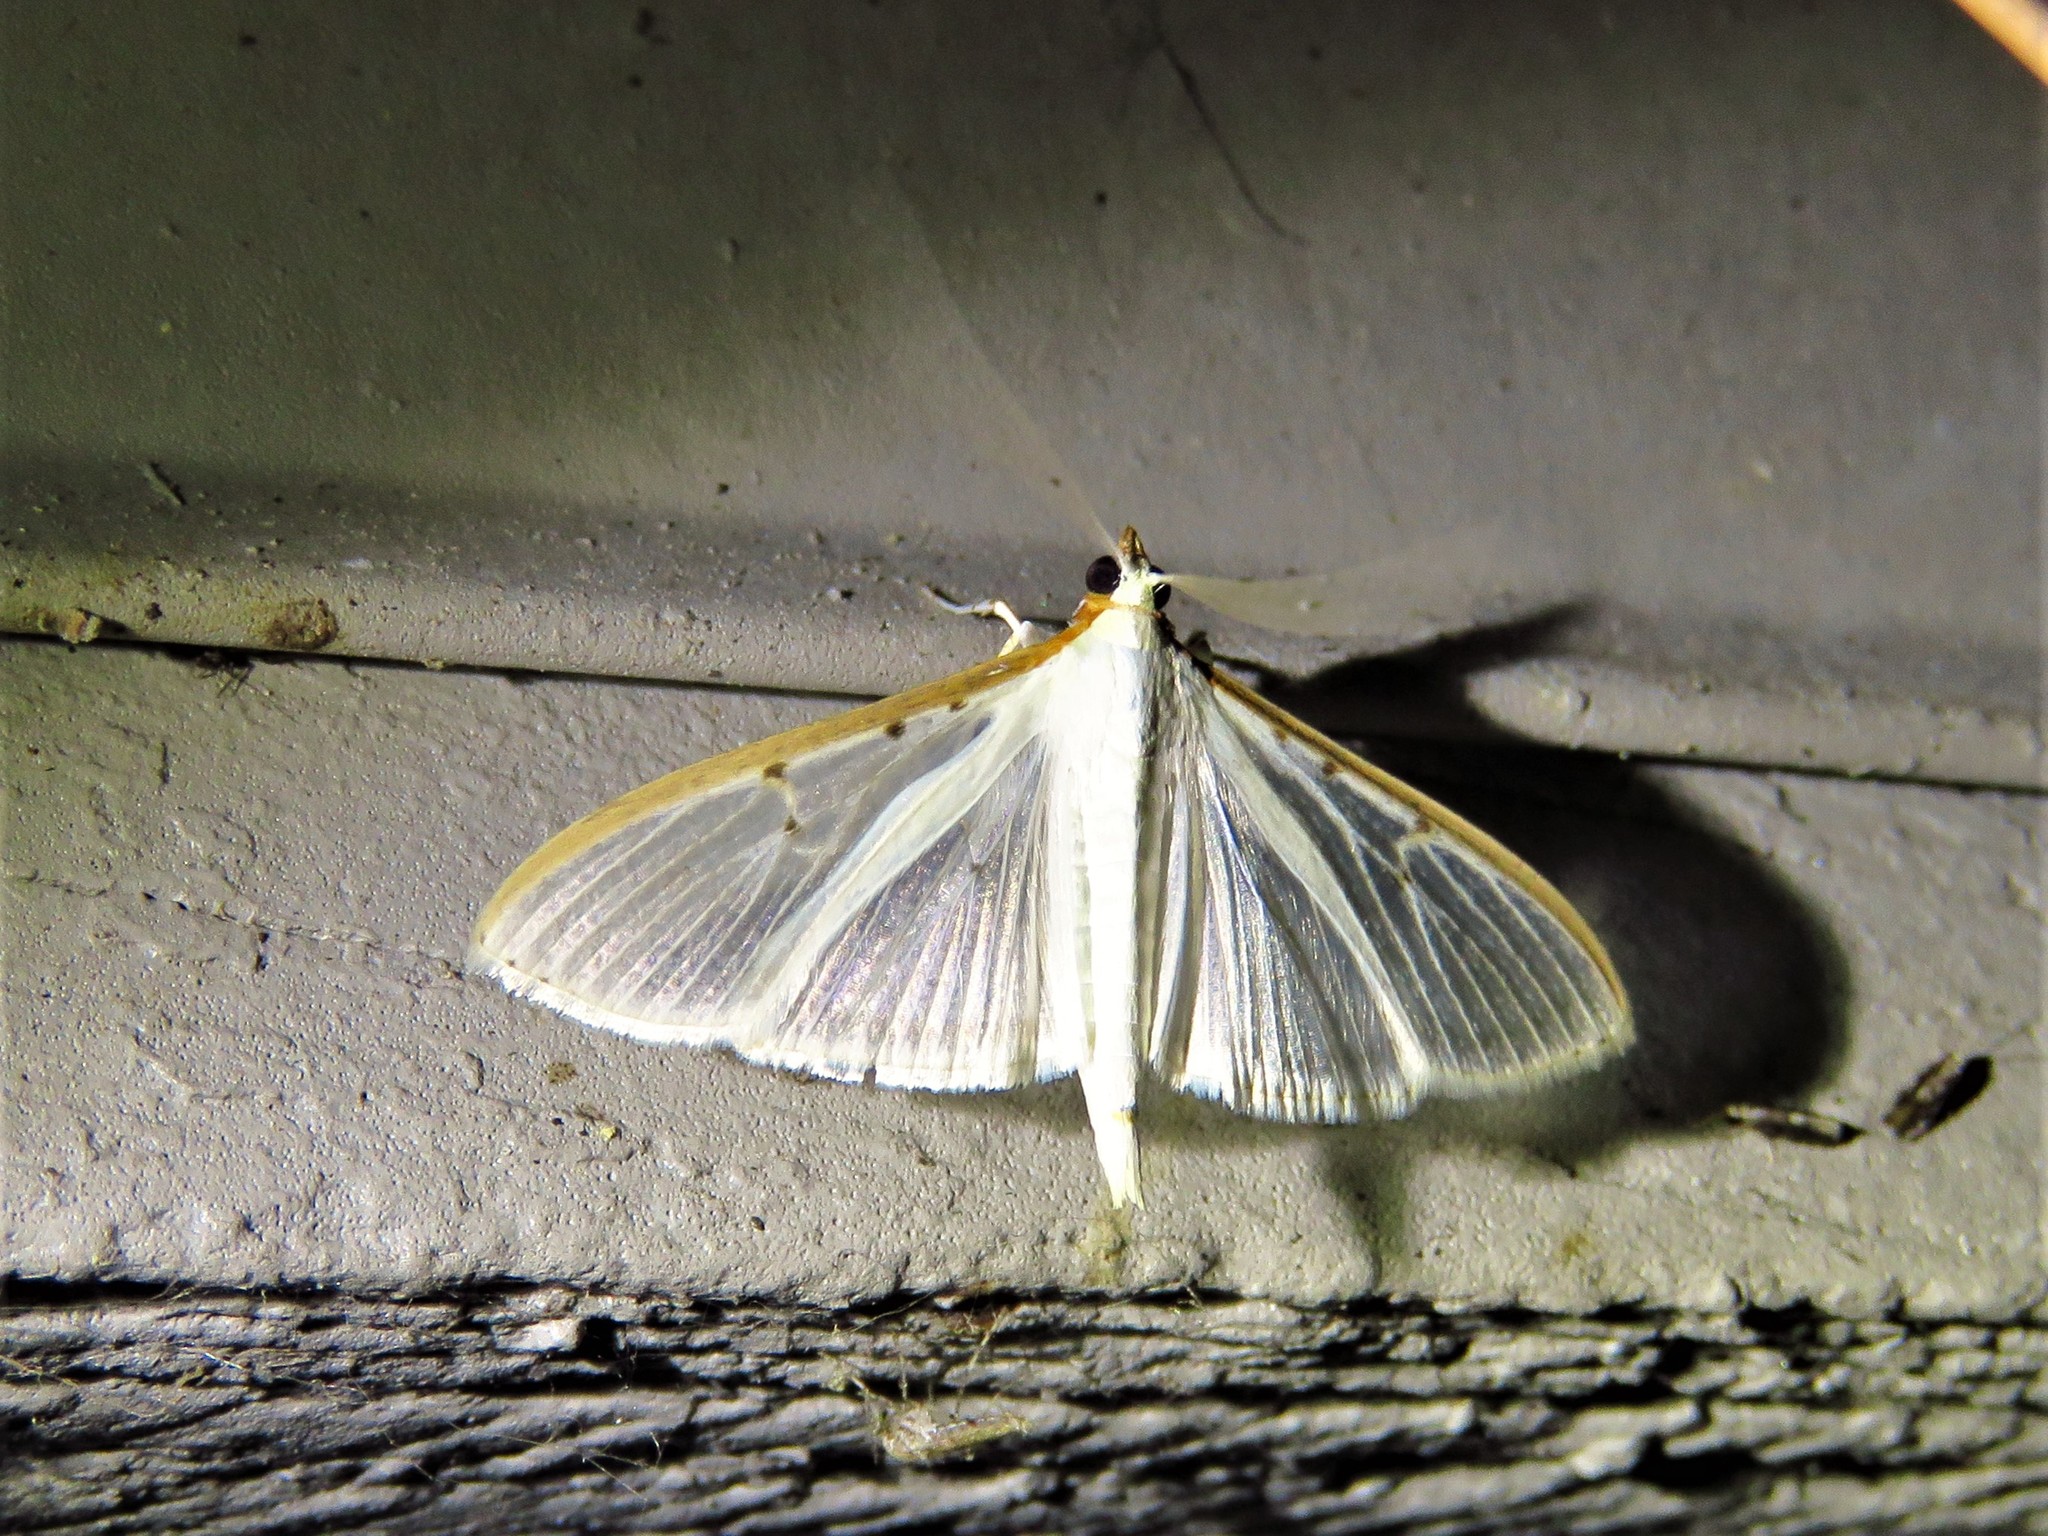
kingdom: Animalia
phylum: Arthropoda
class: Insecta
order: Lepidoptera
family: Crambidae
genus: Palpita
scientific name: Palpita quadristigmalis
